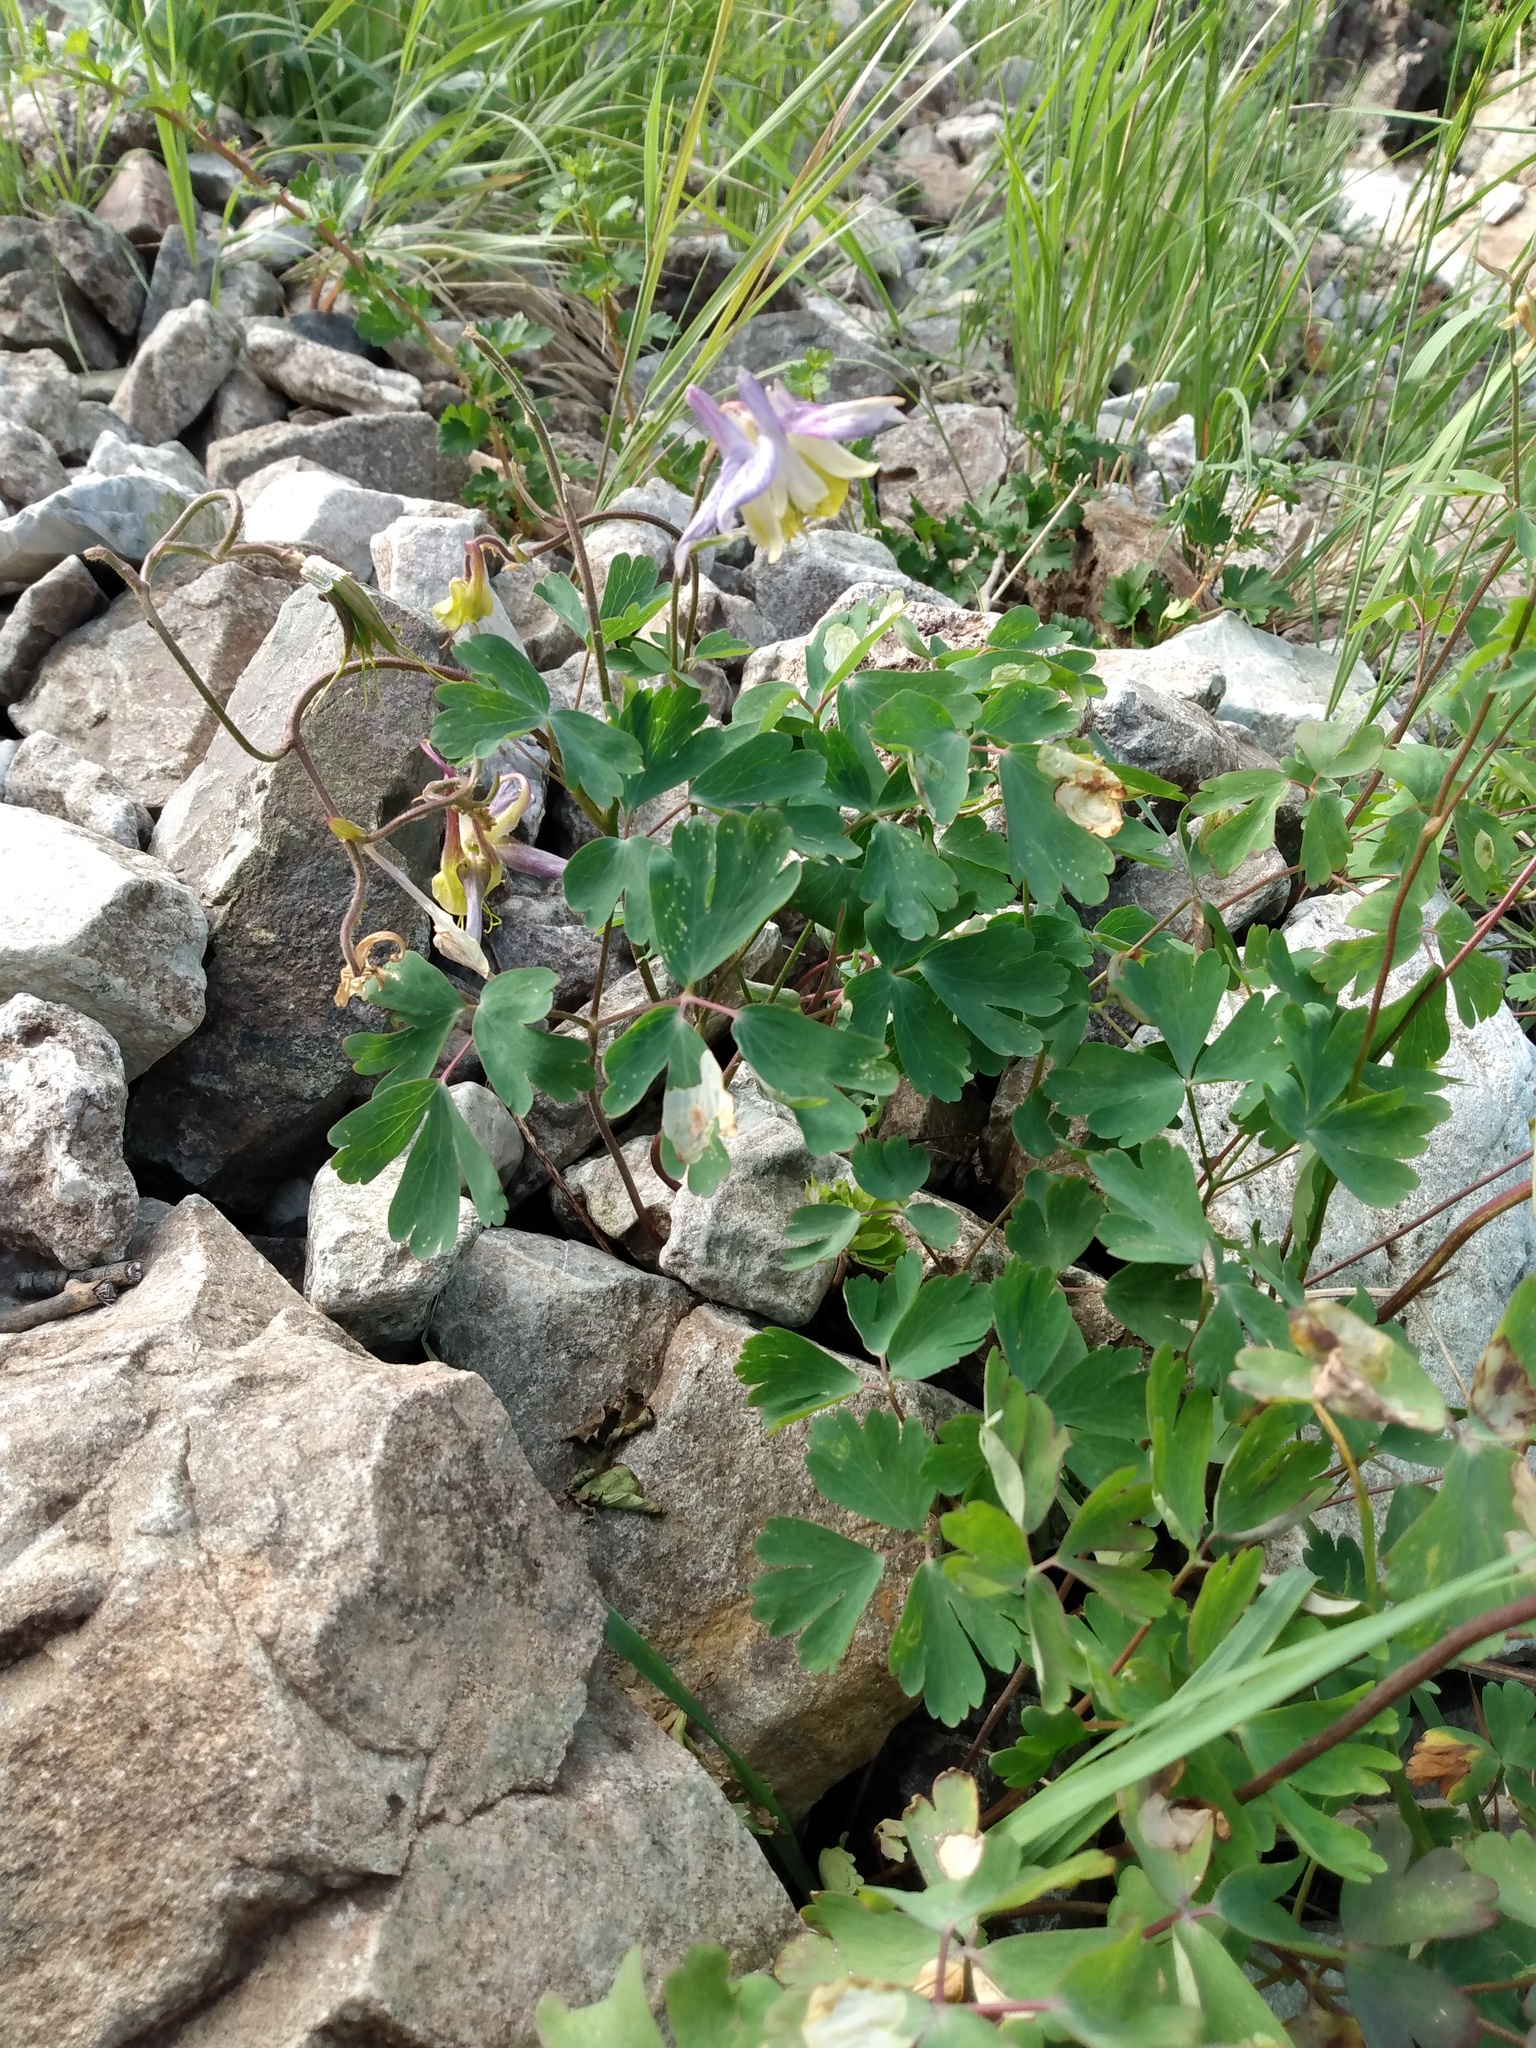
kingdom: Plantae
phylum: Tracheophyta
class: Magnoliopsida
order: Ranunculales
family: Ranunculaceae
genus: Aquilegia
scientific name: Aquilegia coerulea
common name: Rocky mountain columbine
